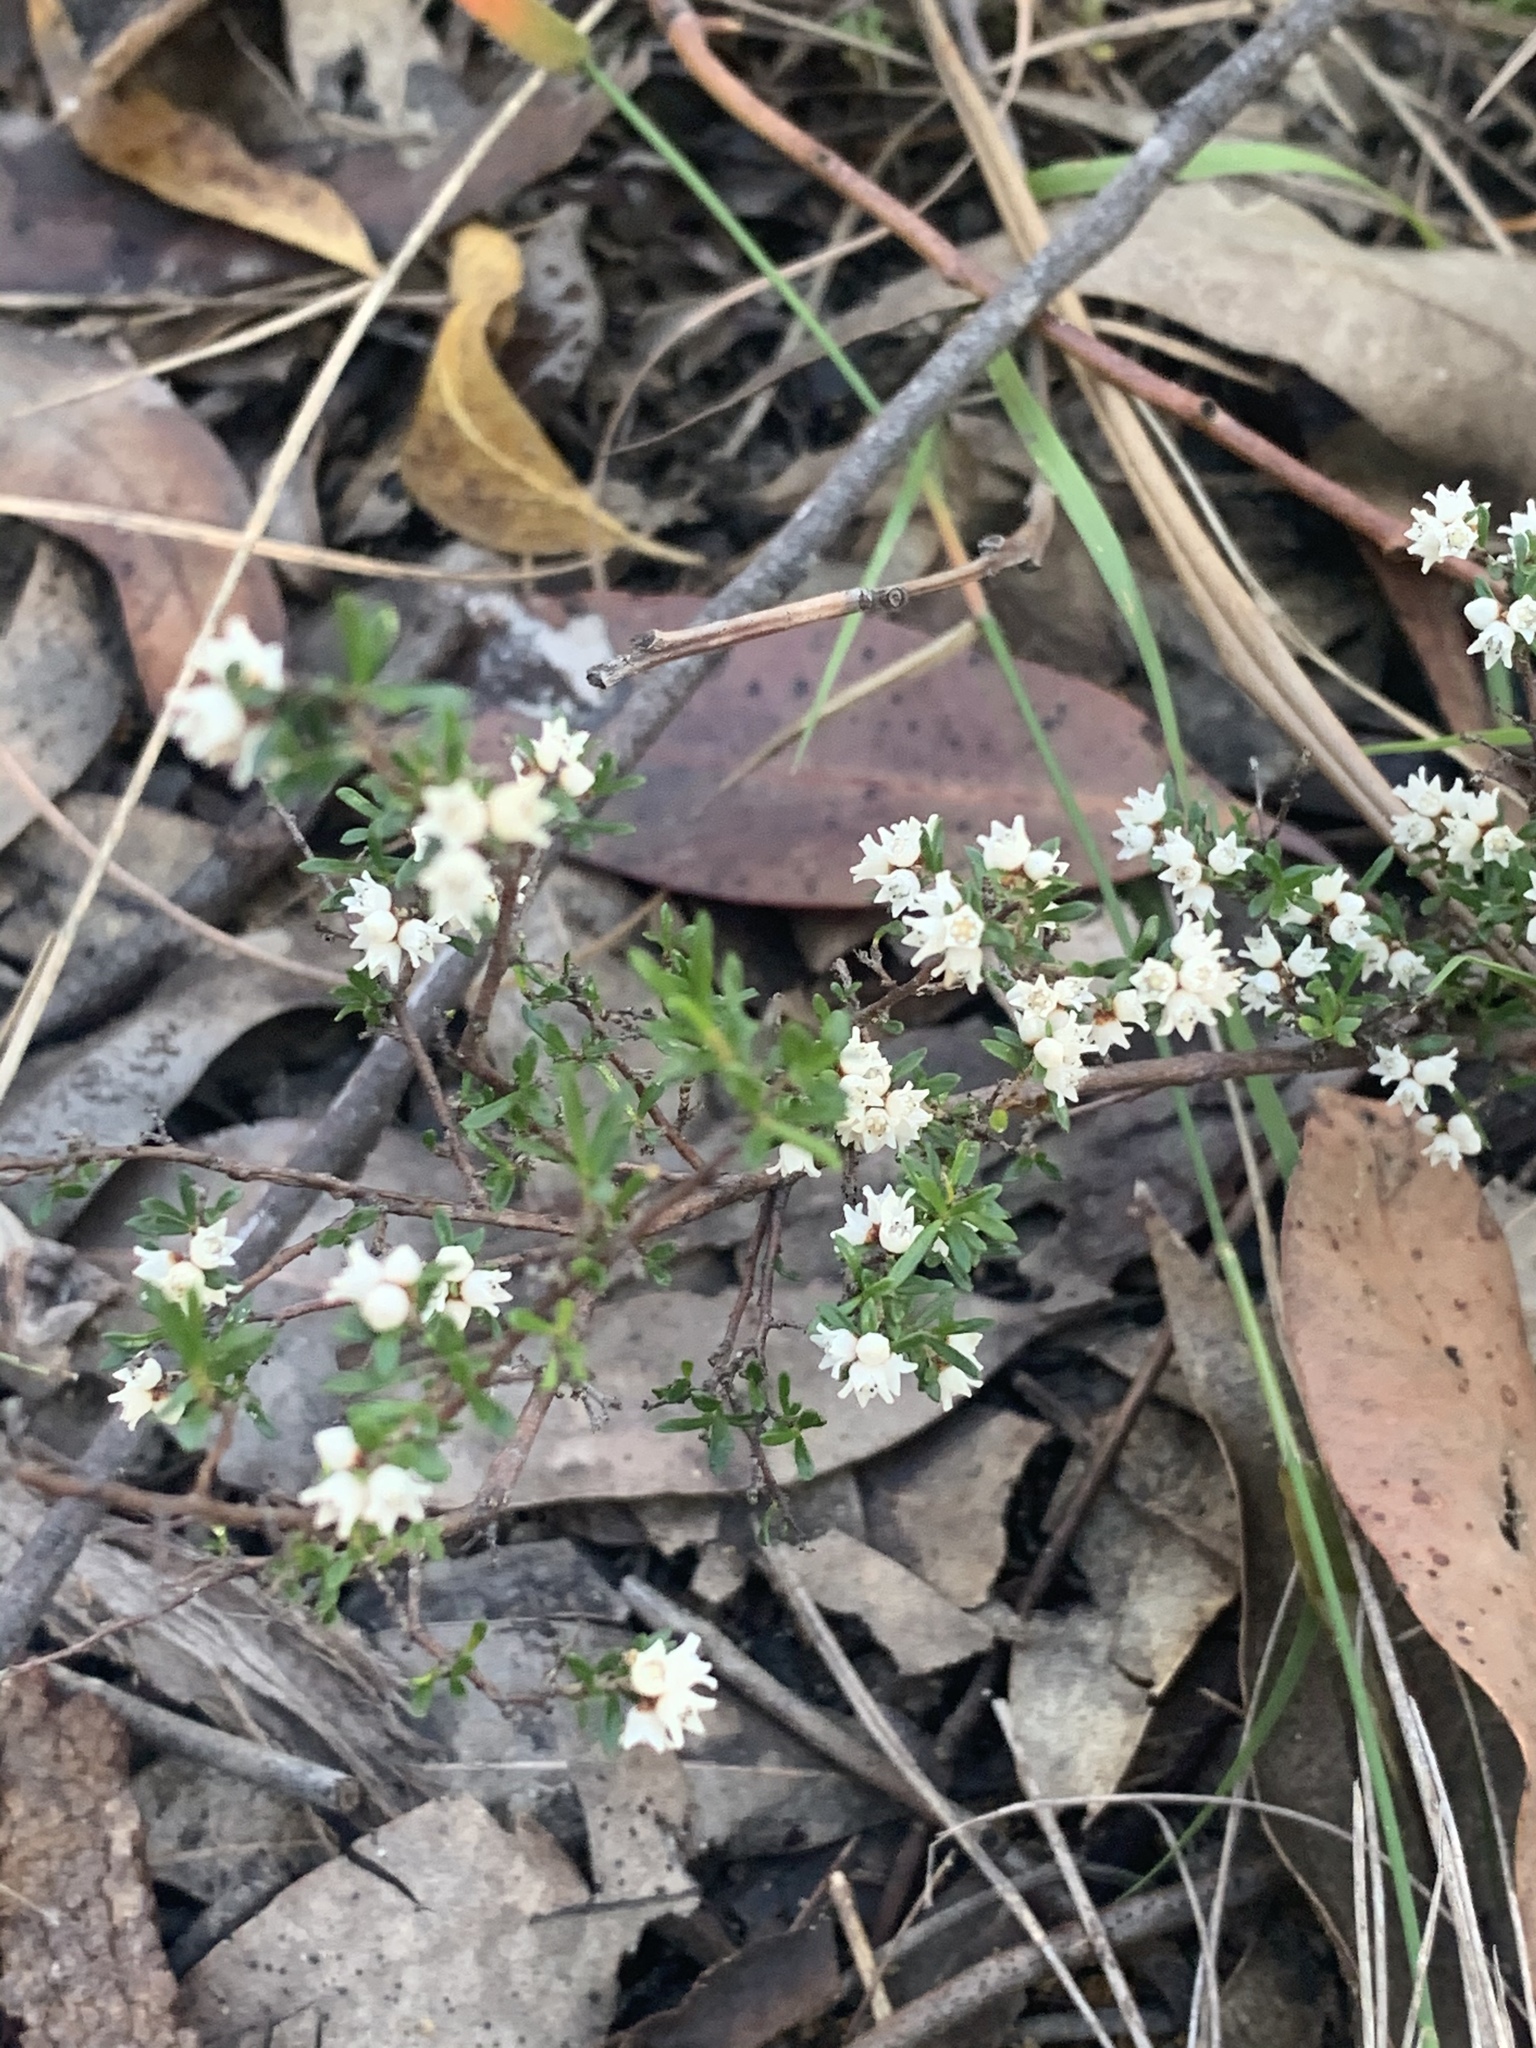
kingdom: Plantae
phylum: Tracheophyta
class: Magnoliopsida
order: Rosales
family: Rhamnaceae
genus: Cryptandra
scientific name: Cryptandra amara
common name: Bitter cryptandra
